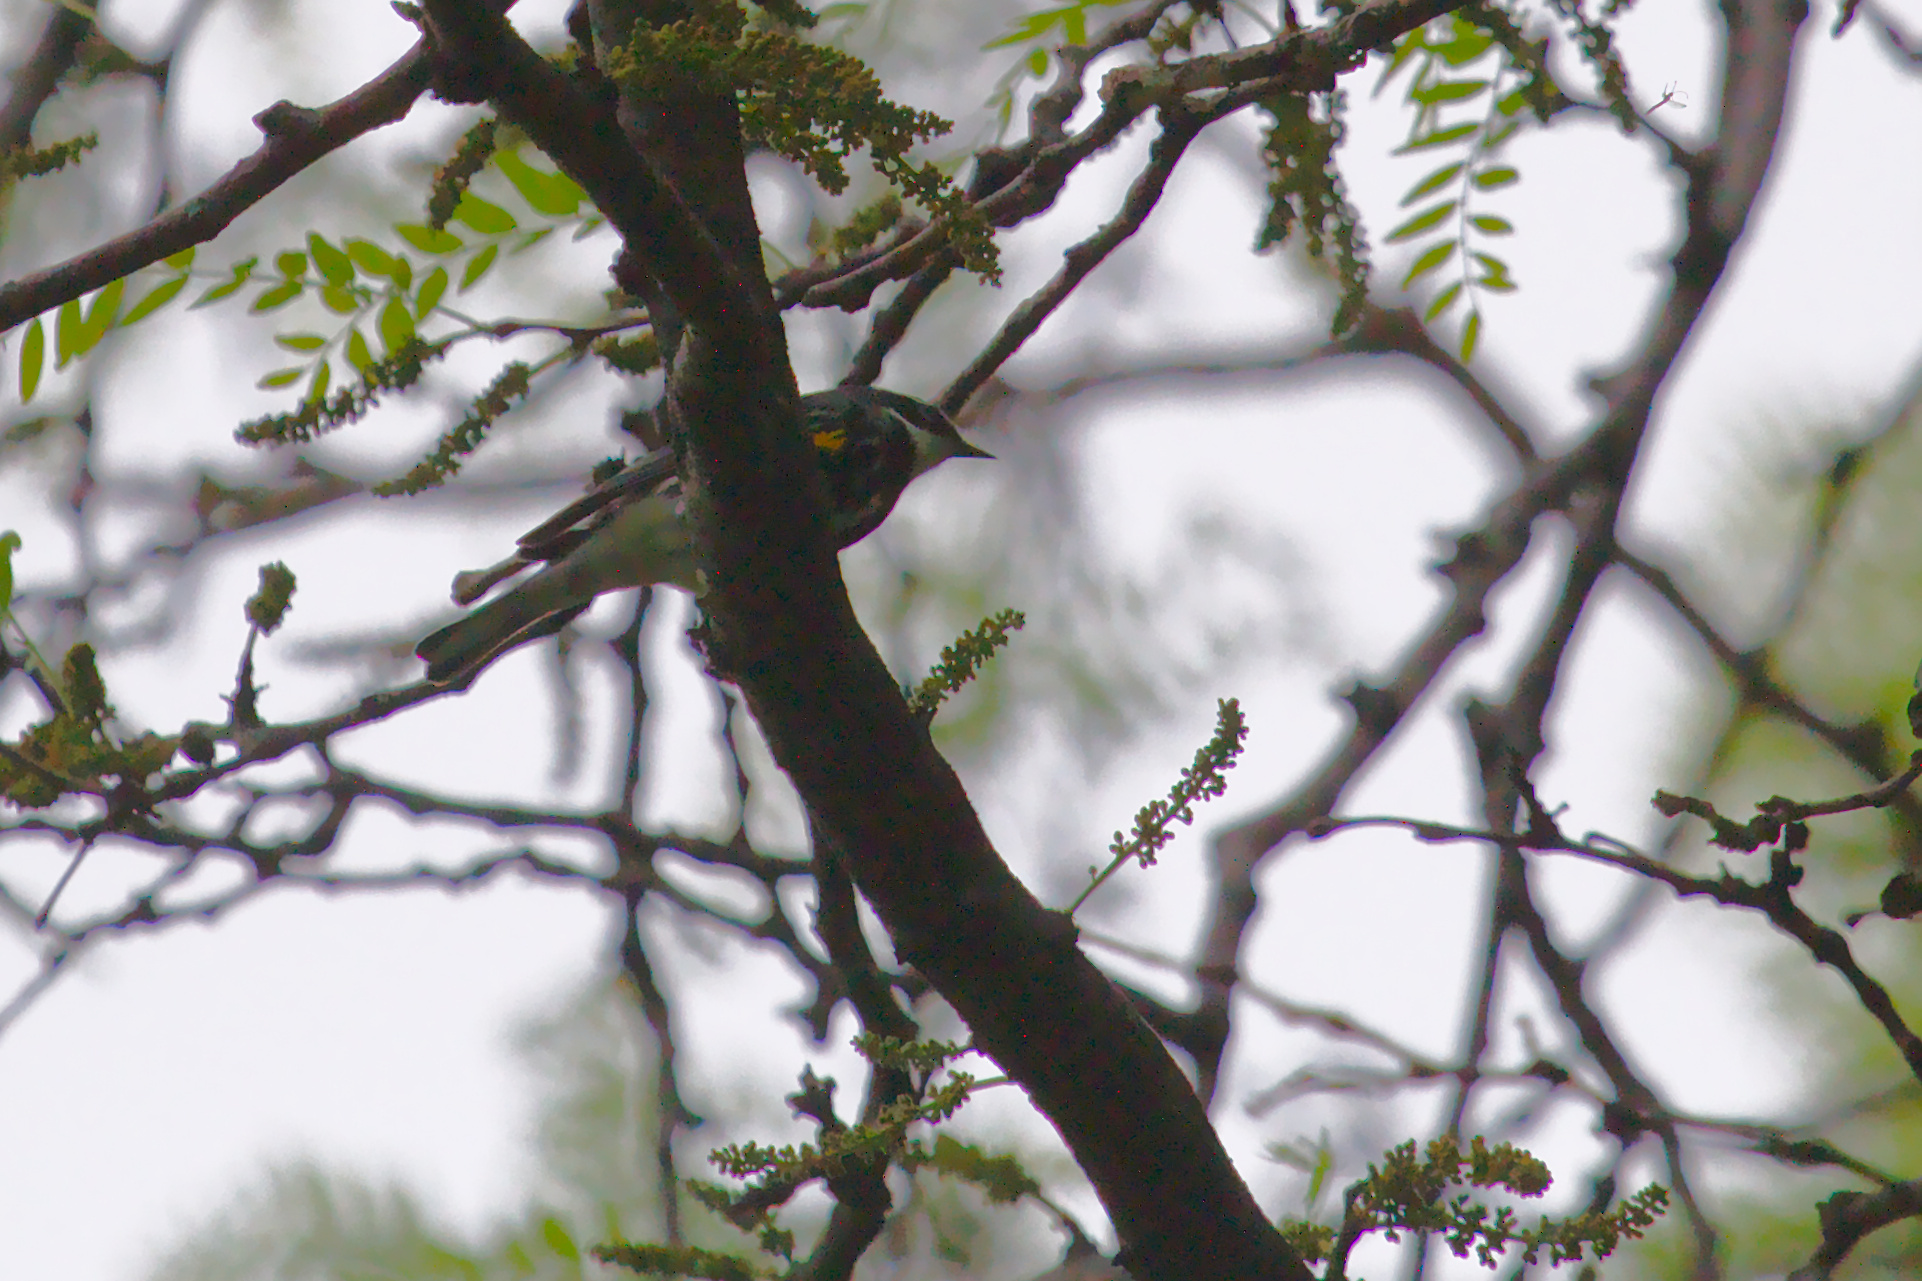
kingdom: Animalia
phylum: Chordata
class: Aves
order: Passeriformes
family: Parulidae
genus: Setophaga
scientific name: Setophaga coronata
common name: Myrtle warbler
